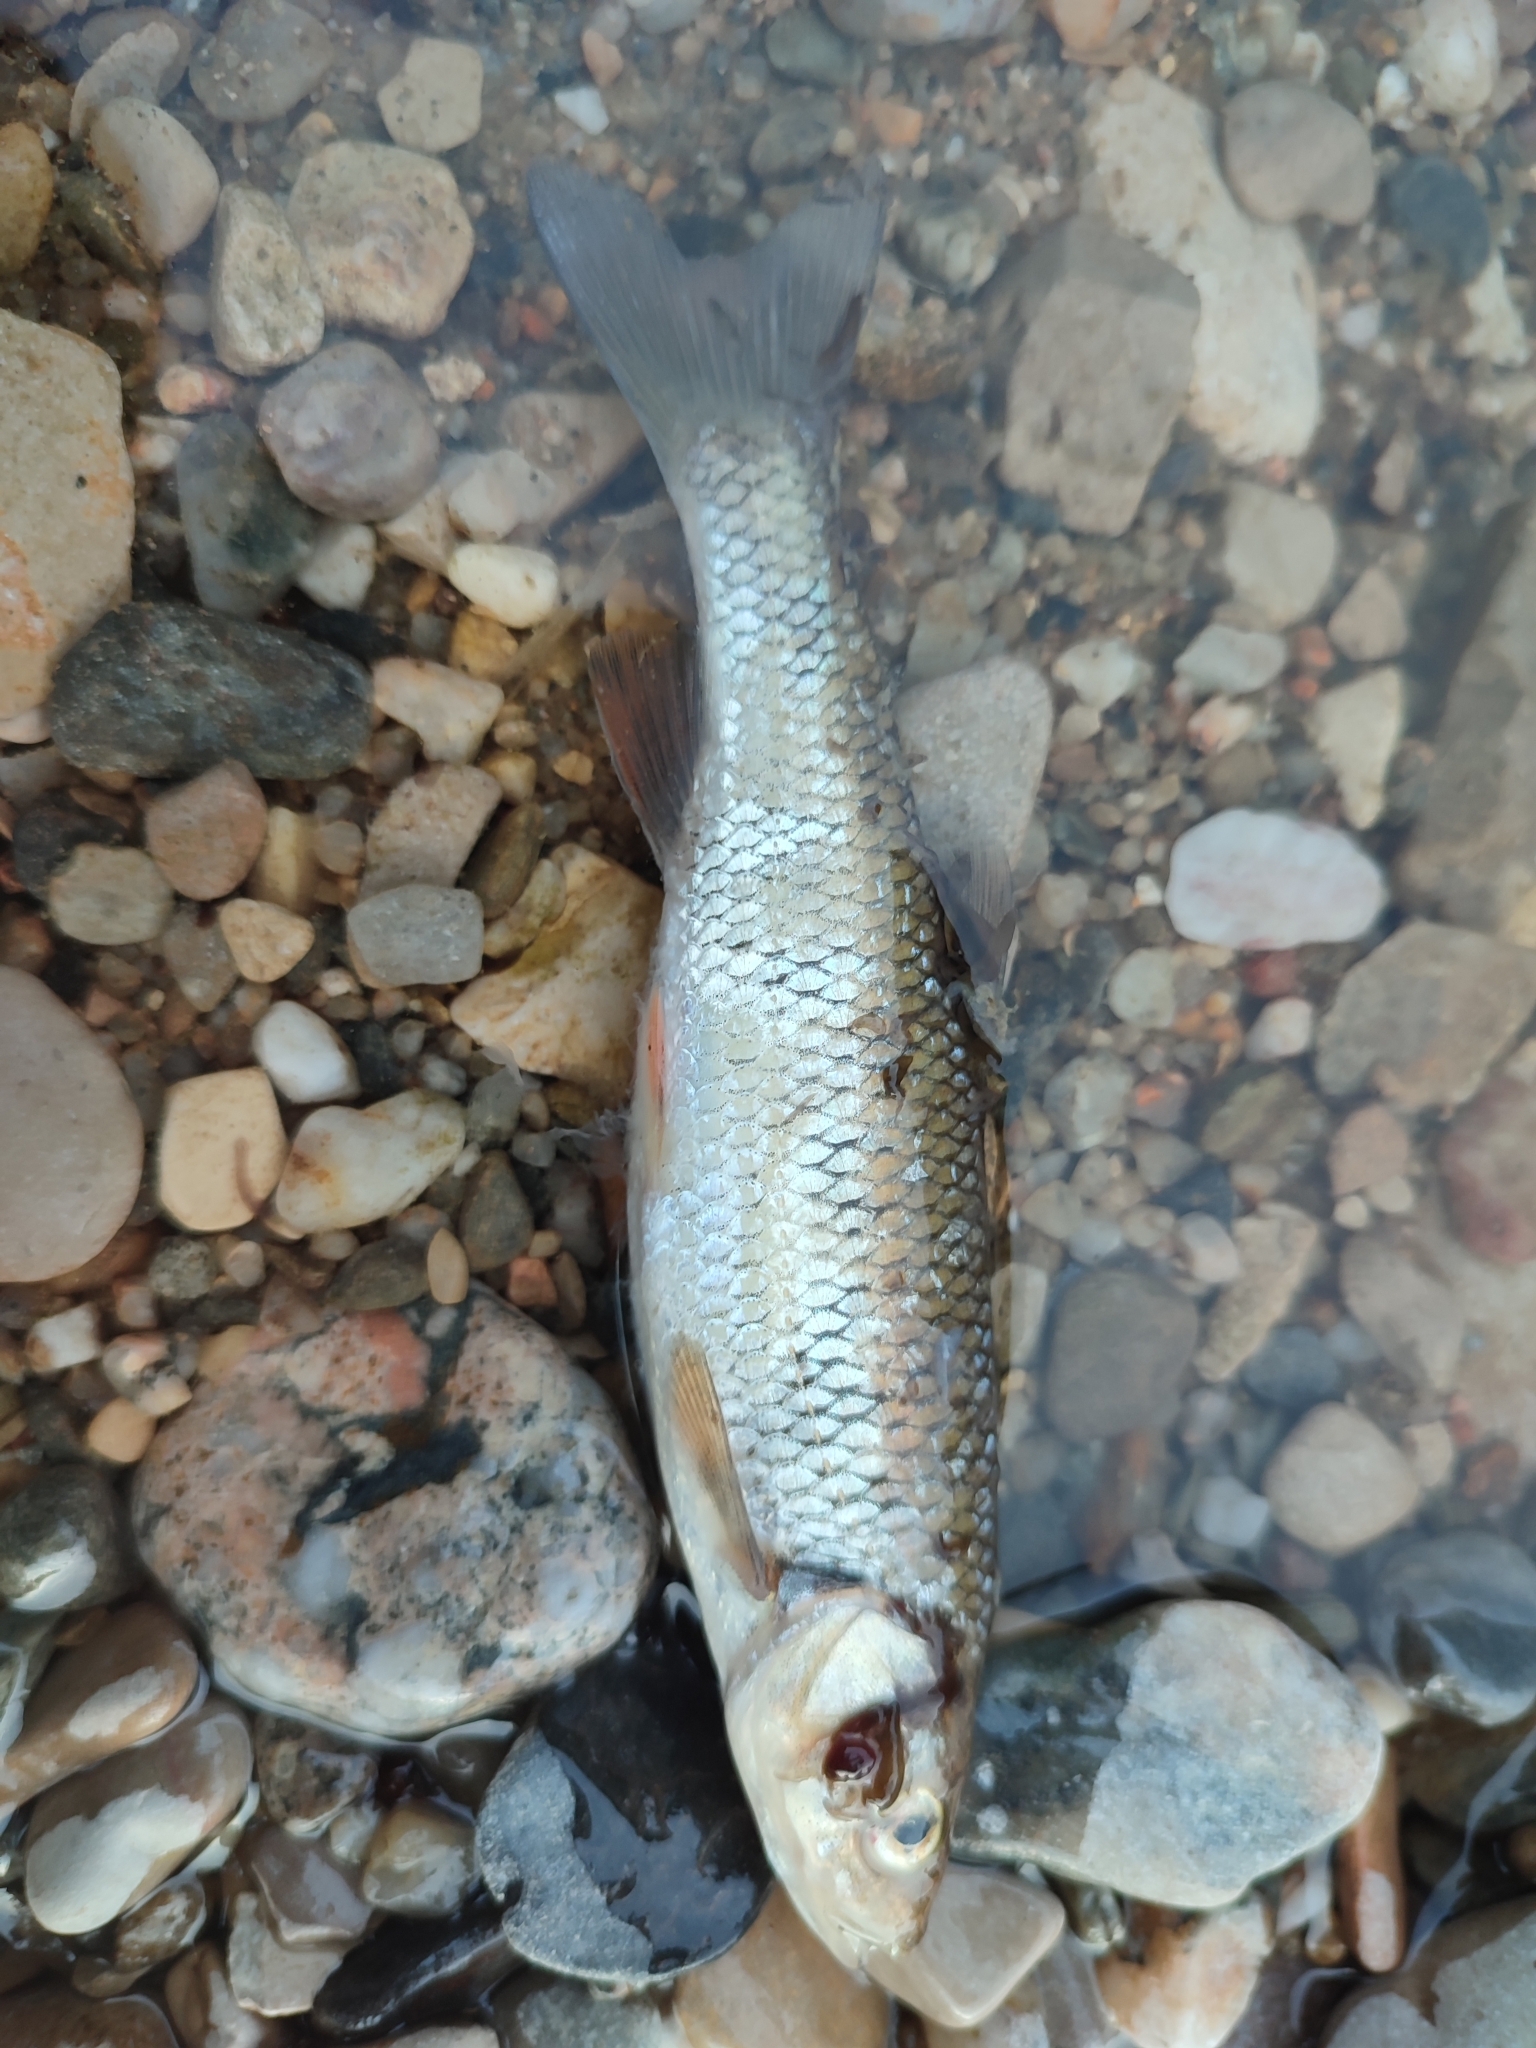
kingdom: Animalia
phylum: Chordata
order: Cypriniformes
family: Cyprinidae
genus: Squalius
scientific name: Squalius cephalus
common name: Chub
